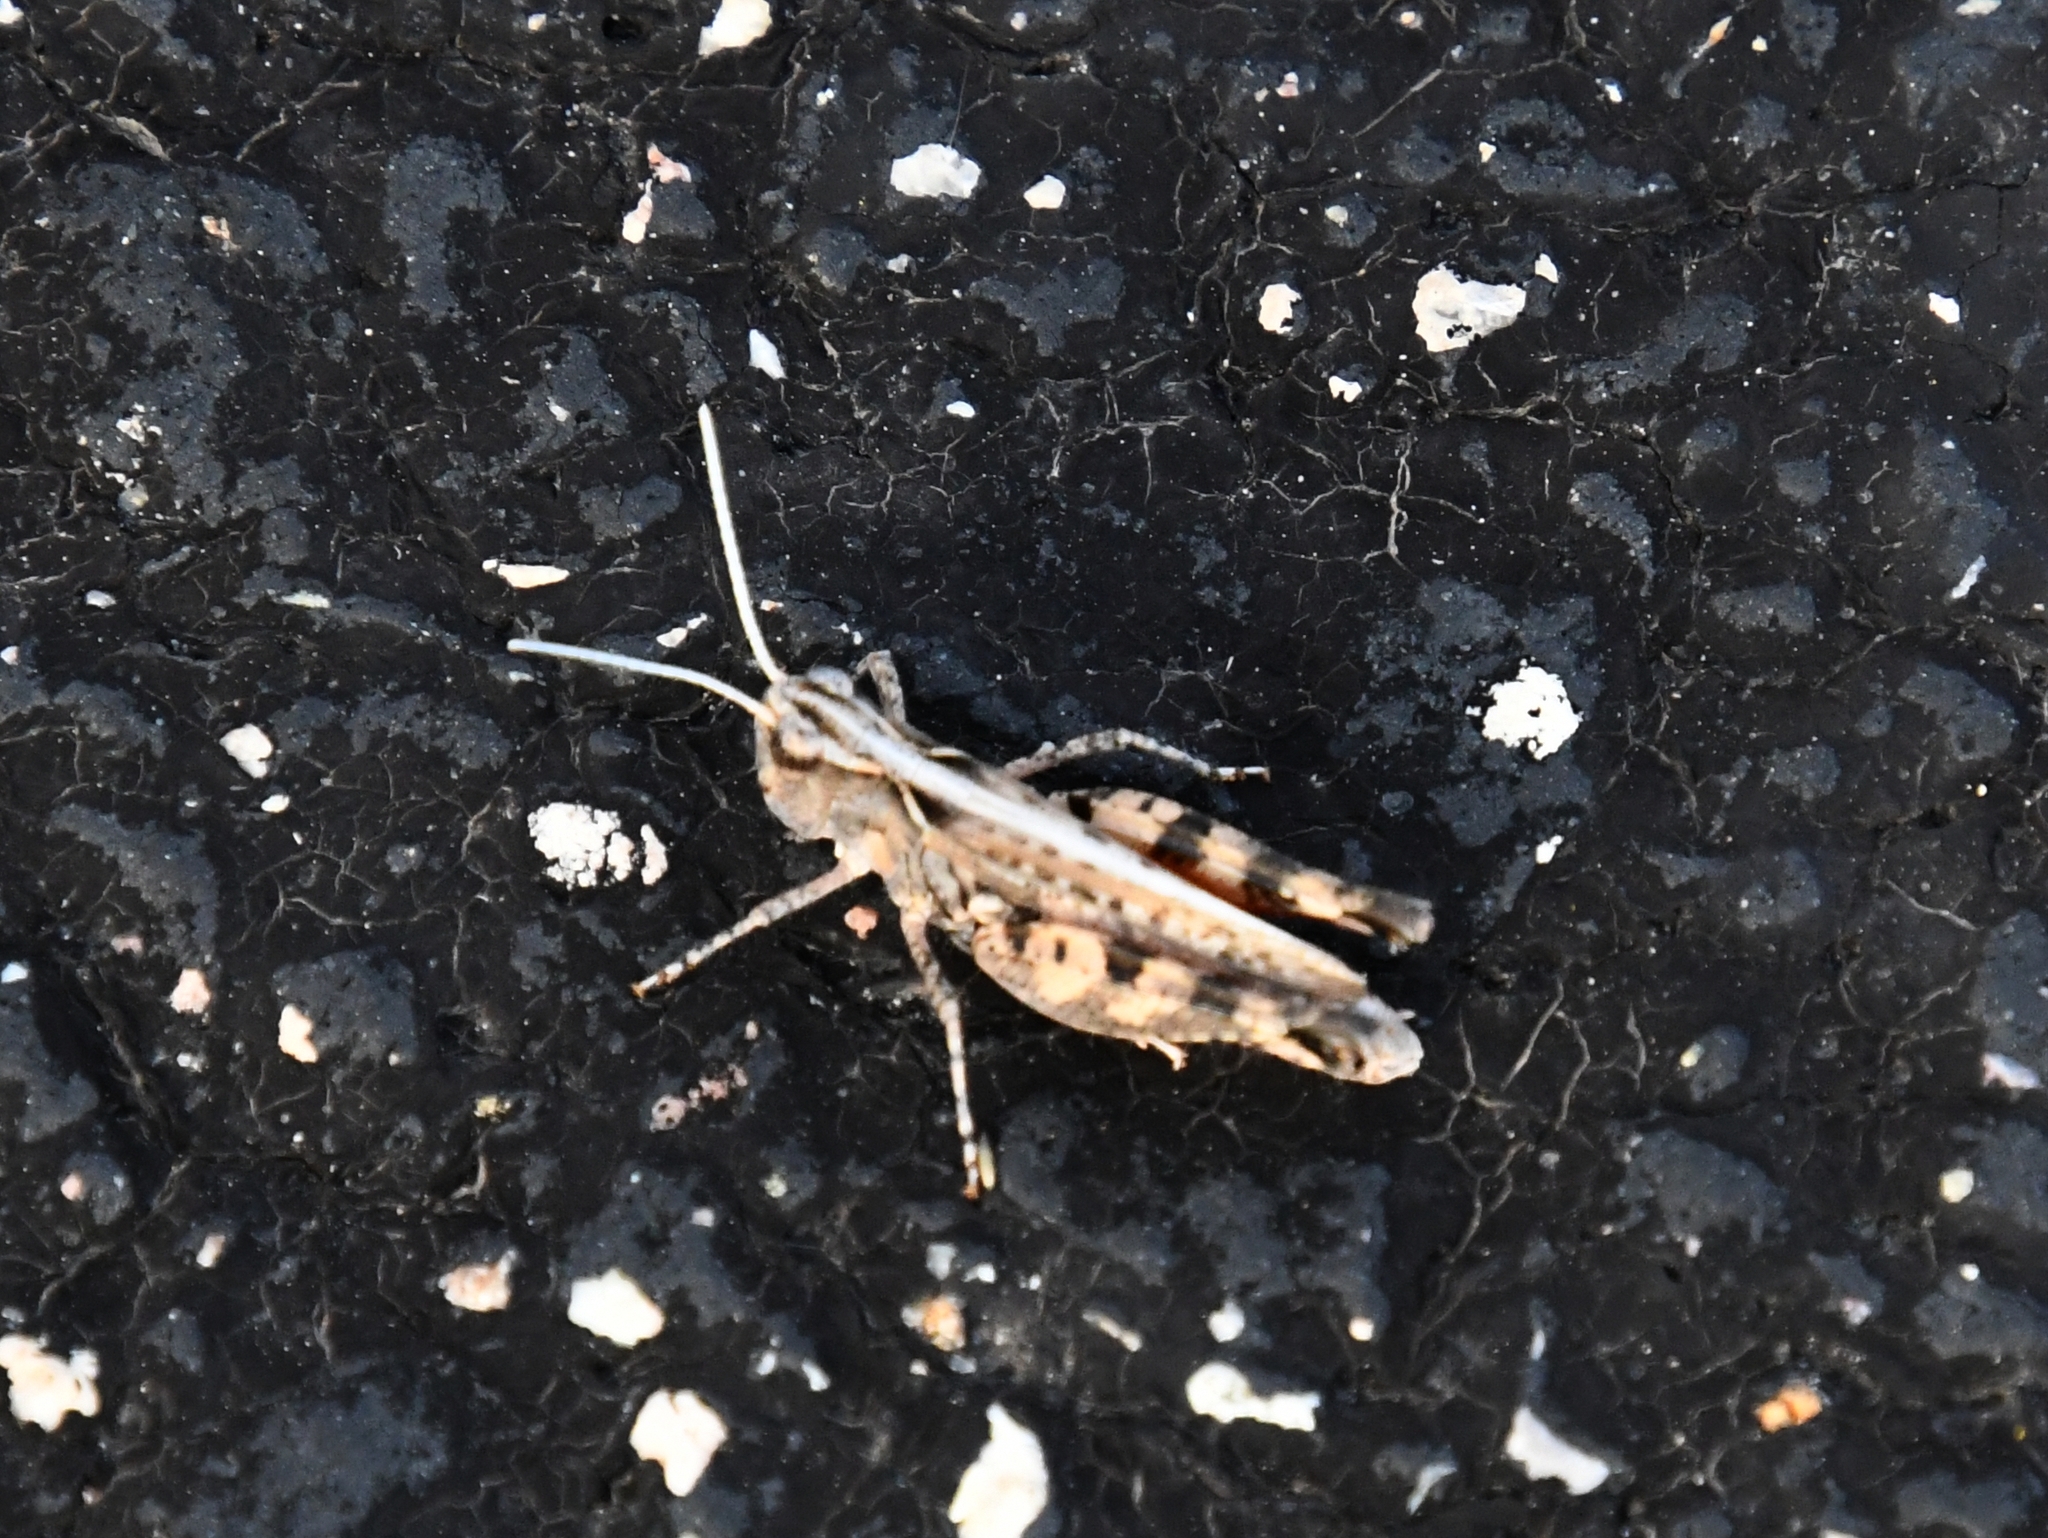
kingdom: Animalia
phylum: Arthropoda
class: Insecta
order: Orthoptera
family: Acrididae
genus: Ageneotettix
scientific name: Ageneotettix deorum
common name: White-whiskered grasshopper
